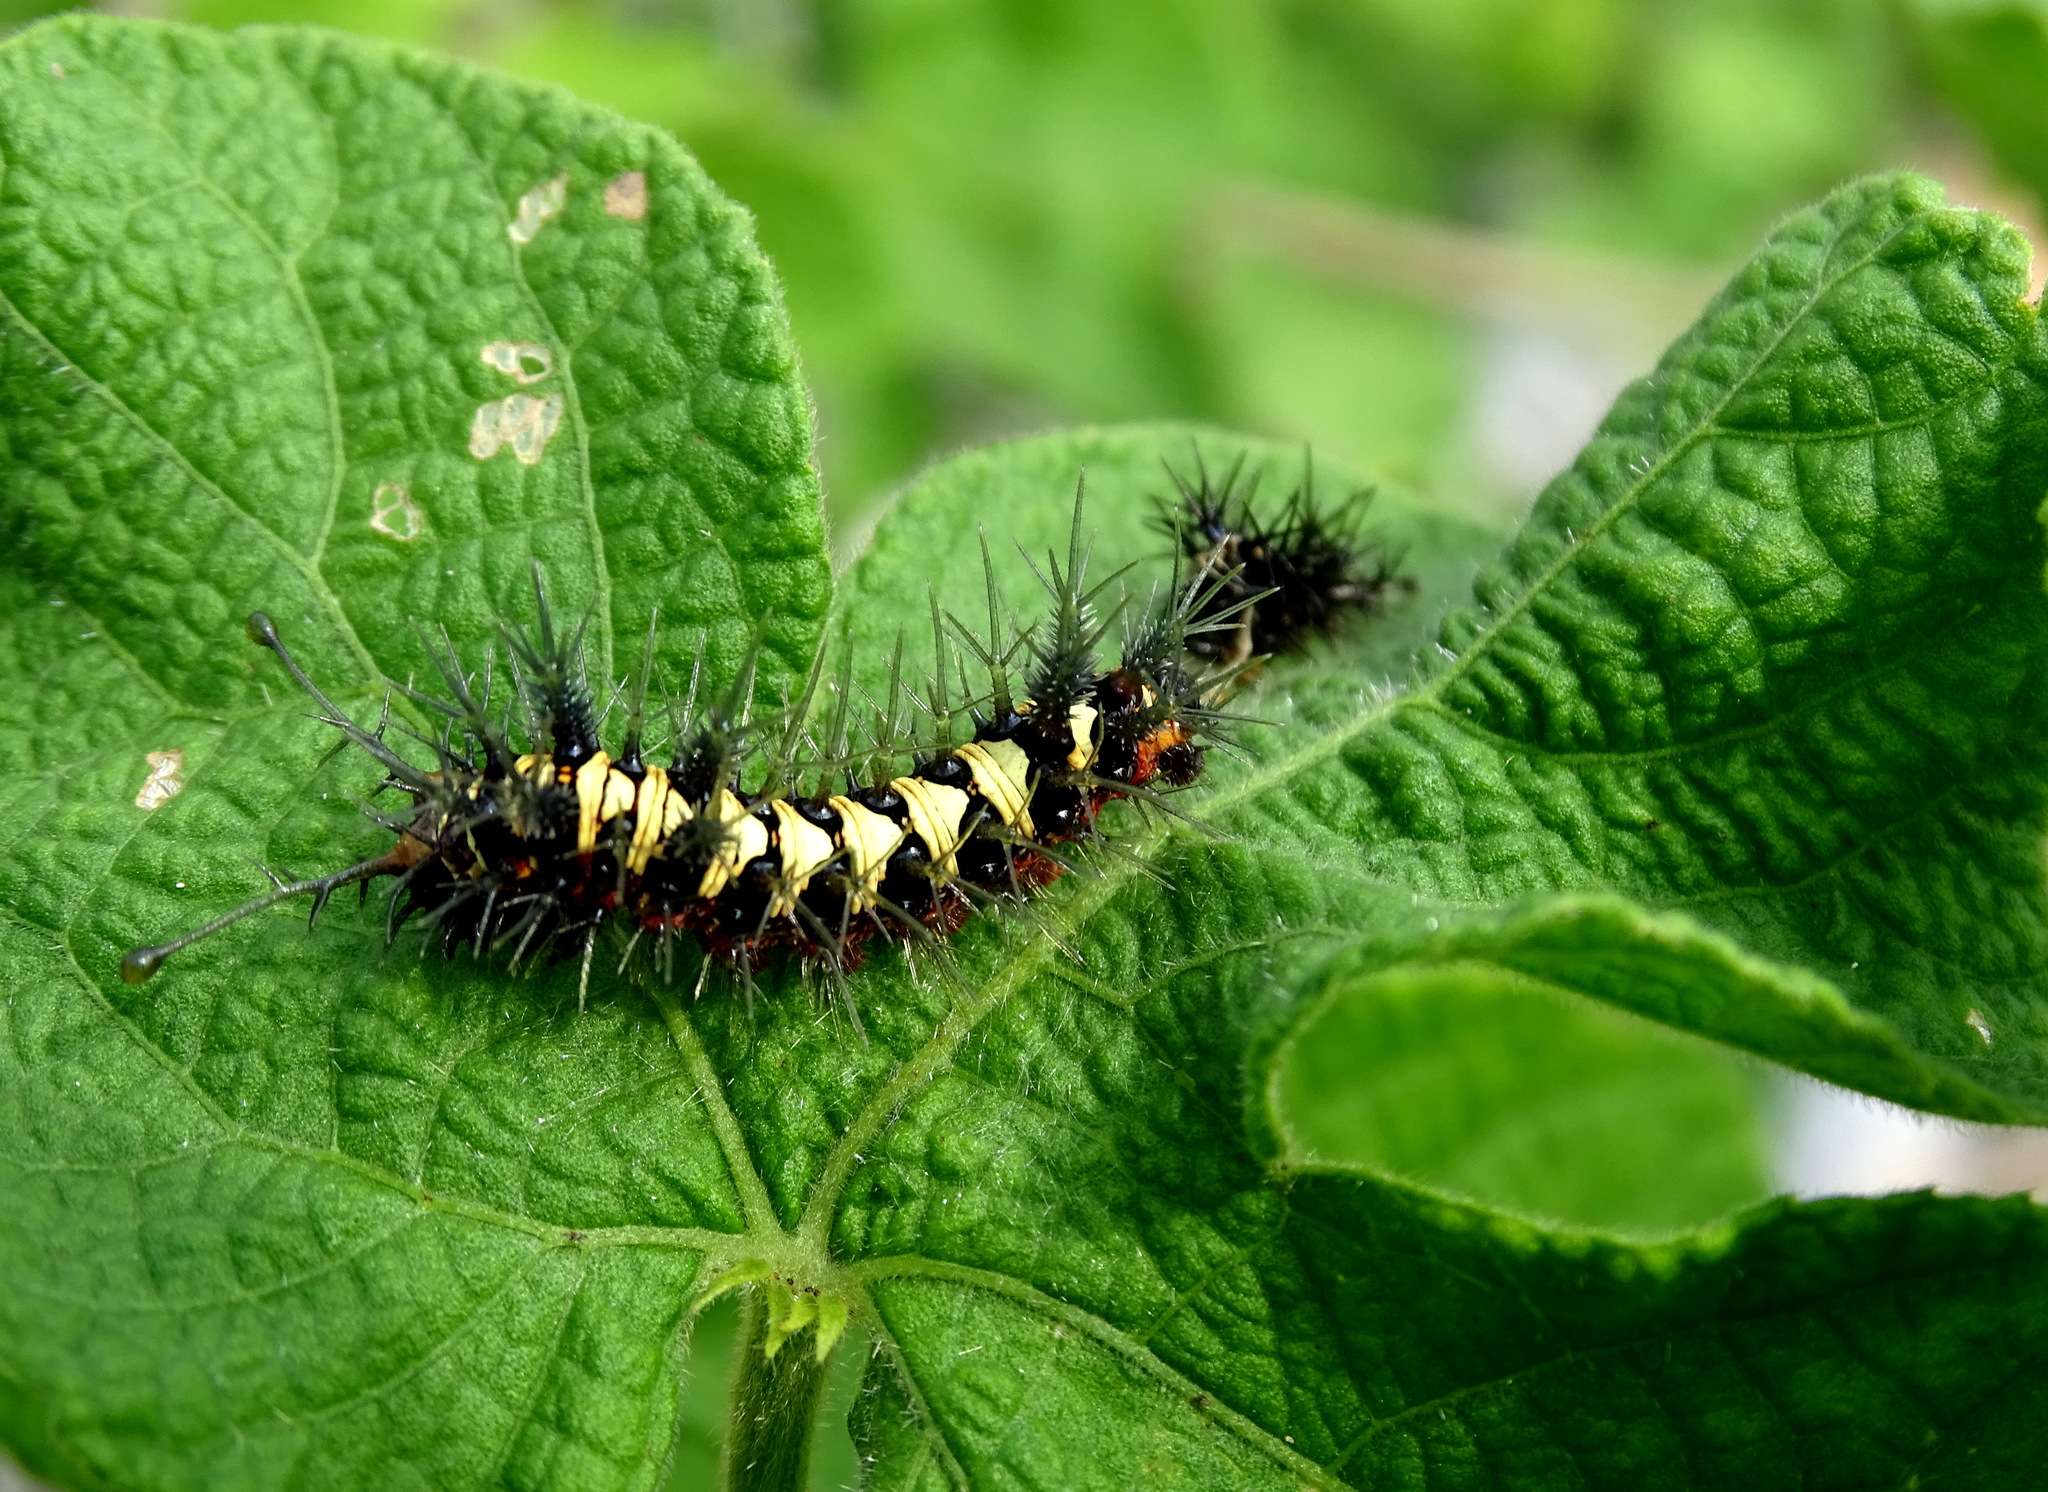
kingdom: Animalia
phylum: Arthropoda
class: Insecta
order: Lepidoptera
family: Nymphalidae
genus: Hamadryas
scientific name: Hamadryas guatemalena
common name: Guatemalan cracker
